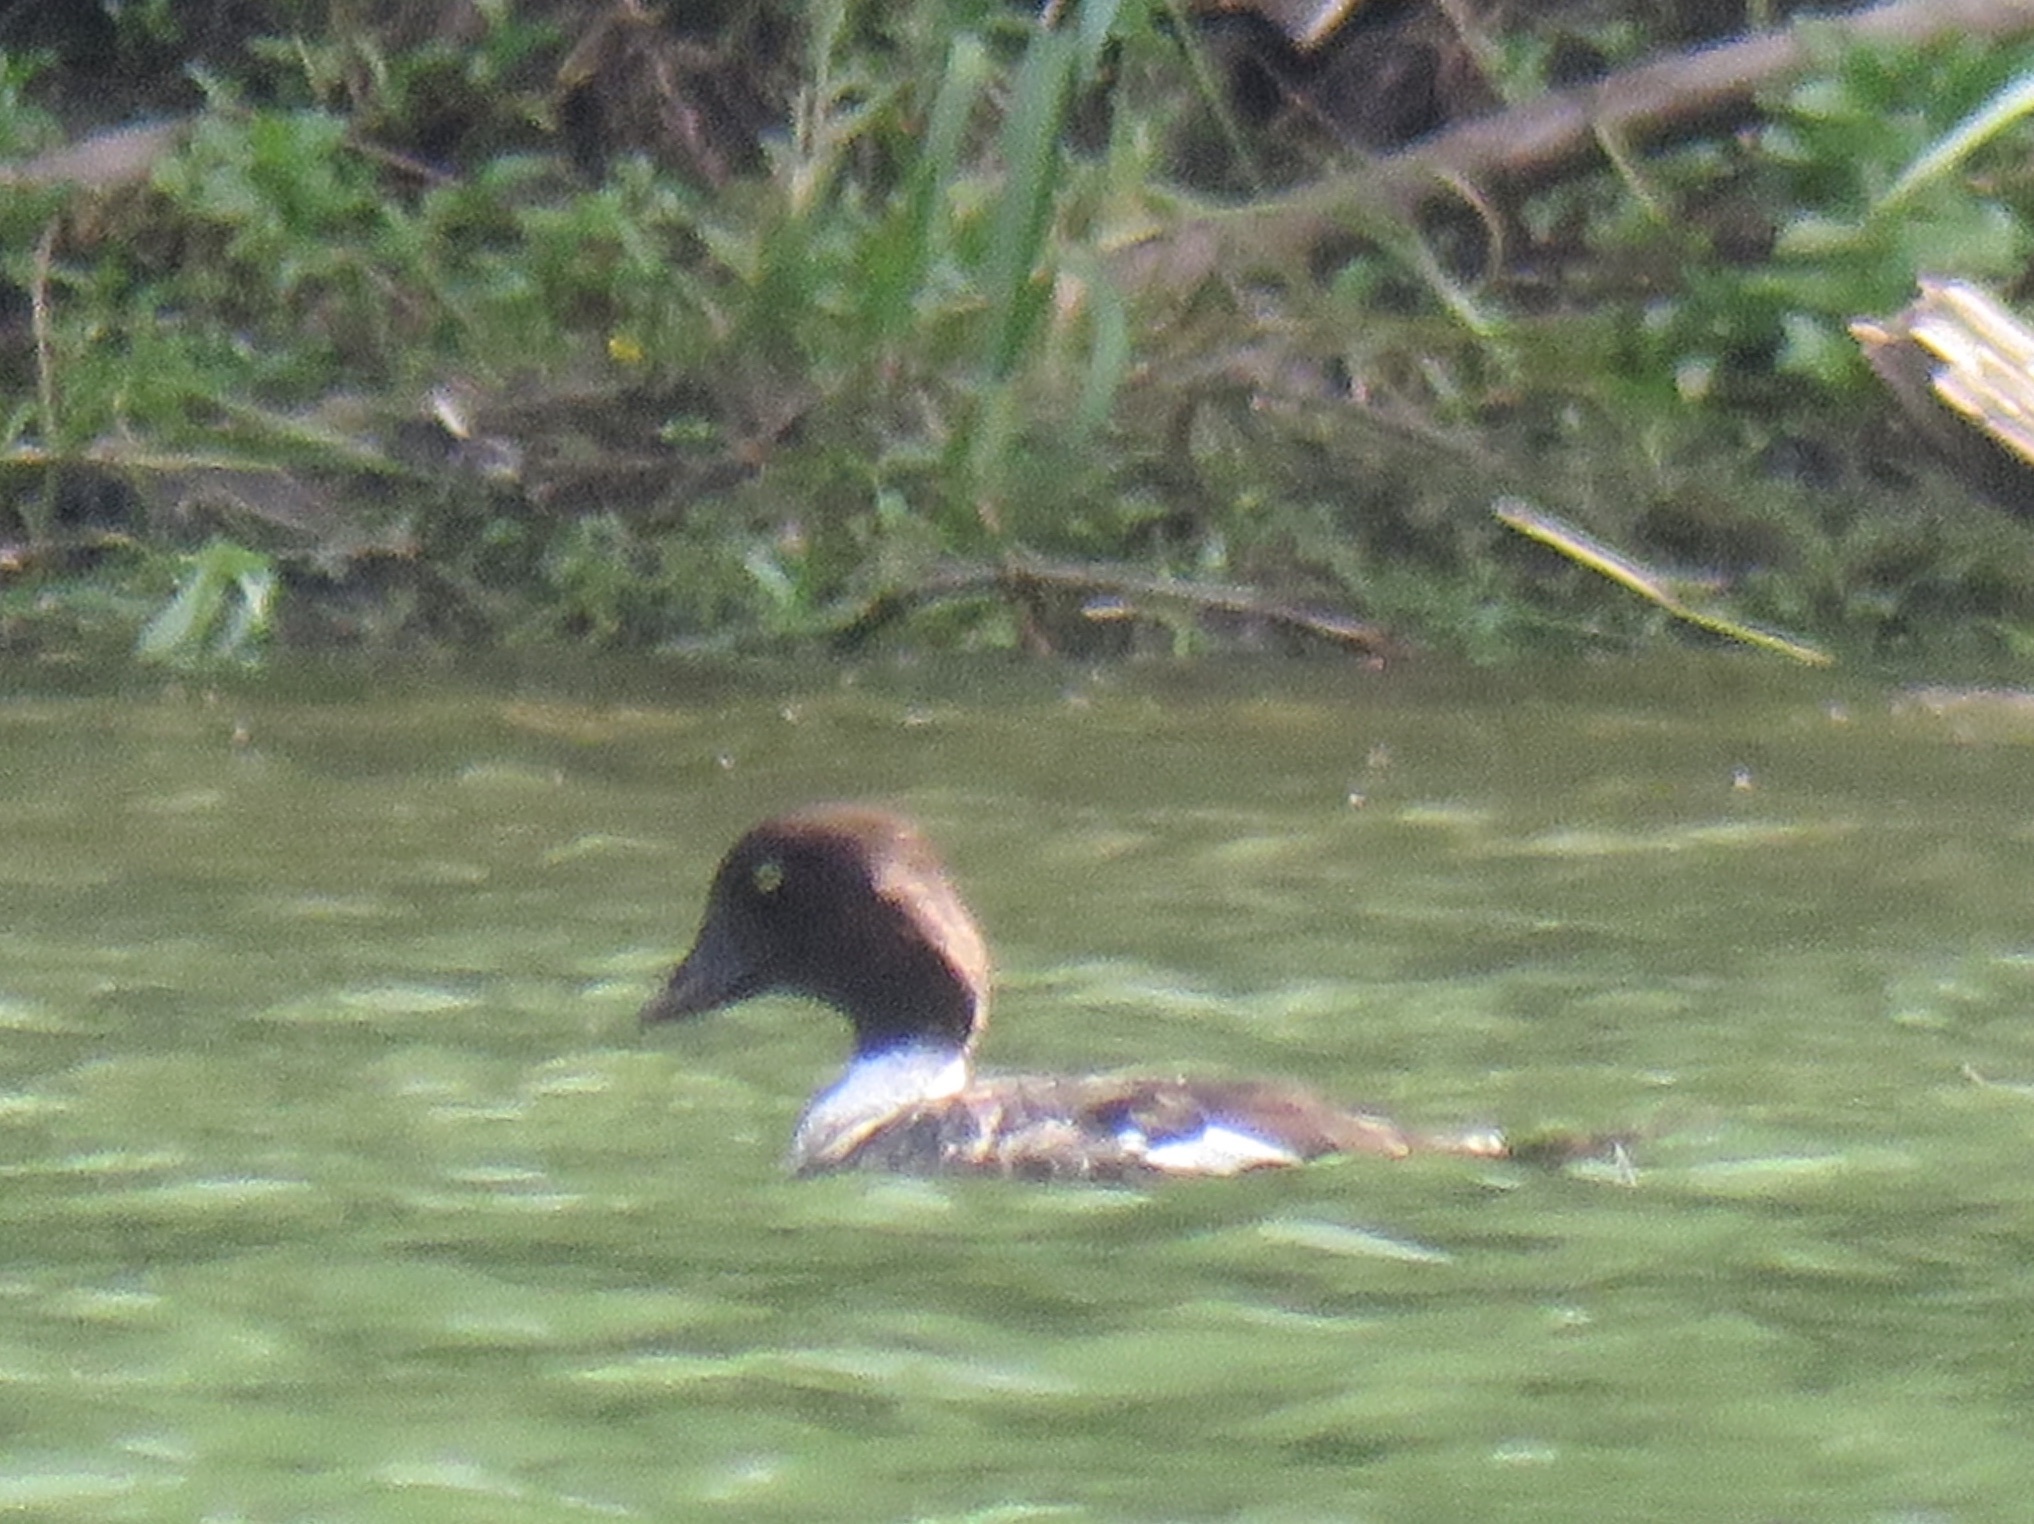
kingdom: Animalia
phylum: Chordata
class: Aves
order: Anseriformes
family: Anatidae
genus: Bucephala
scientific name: Bucephala clangula
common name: Common goldeneye
